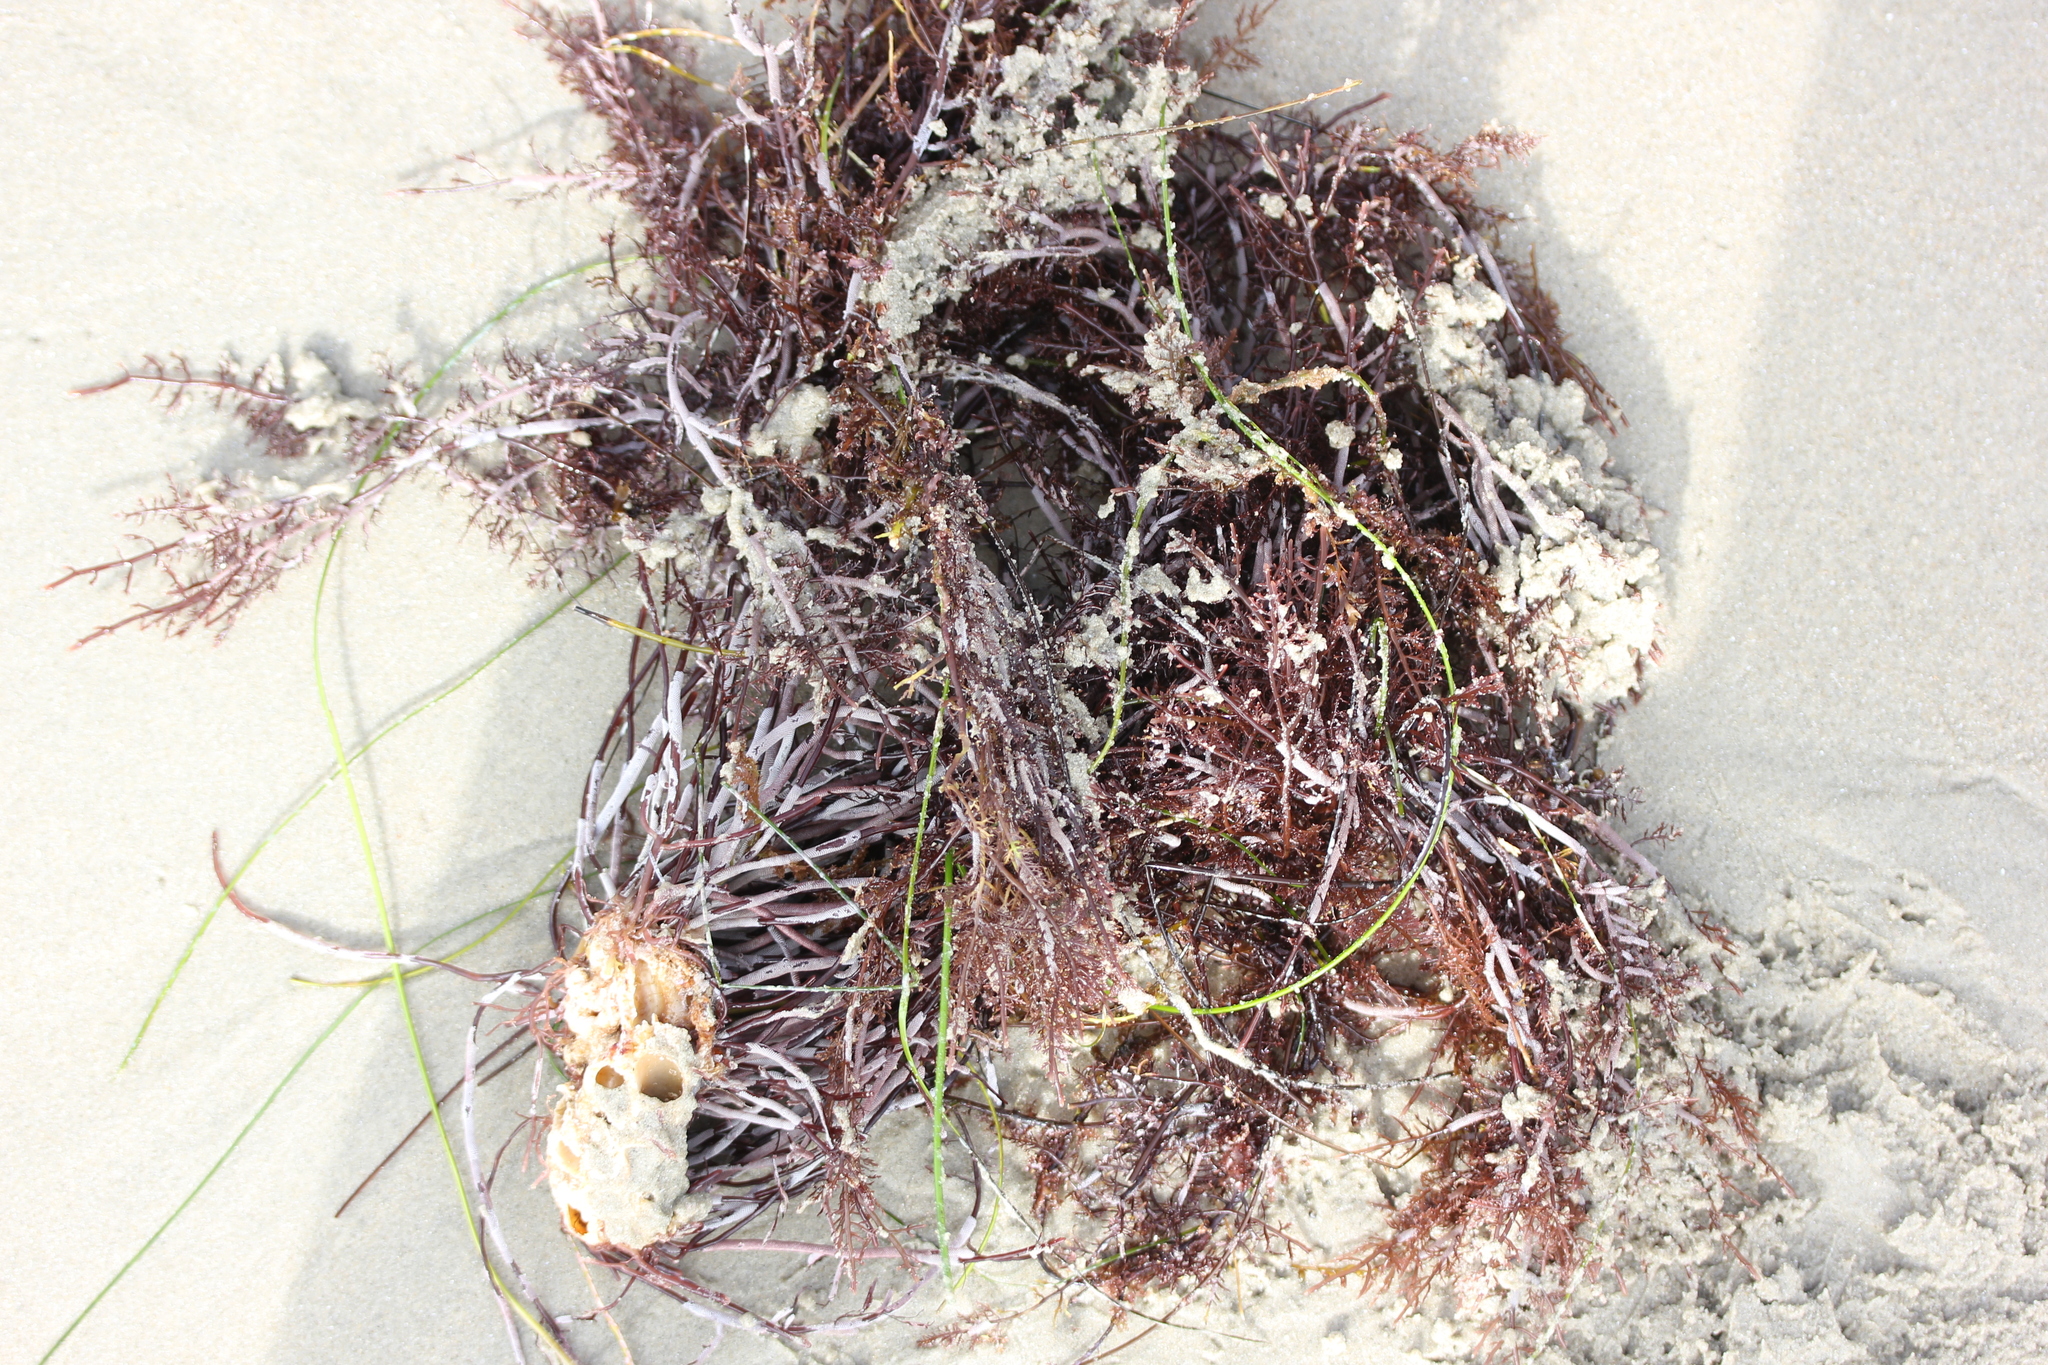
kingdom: Plantae
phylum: Rhodophyta
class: Florideophyceae
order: Gelidiales
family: Pterocladiaceae
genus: Pterocladiella
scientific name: Pterocladiella capillacea
